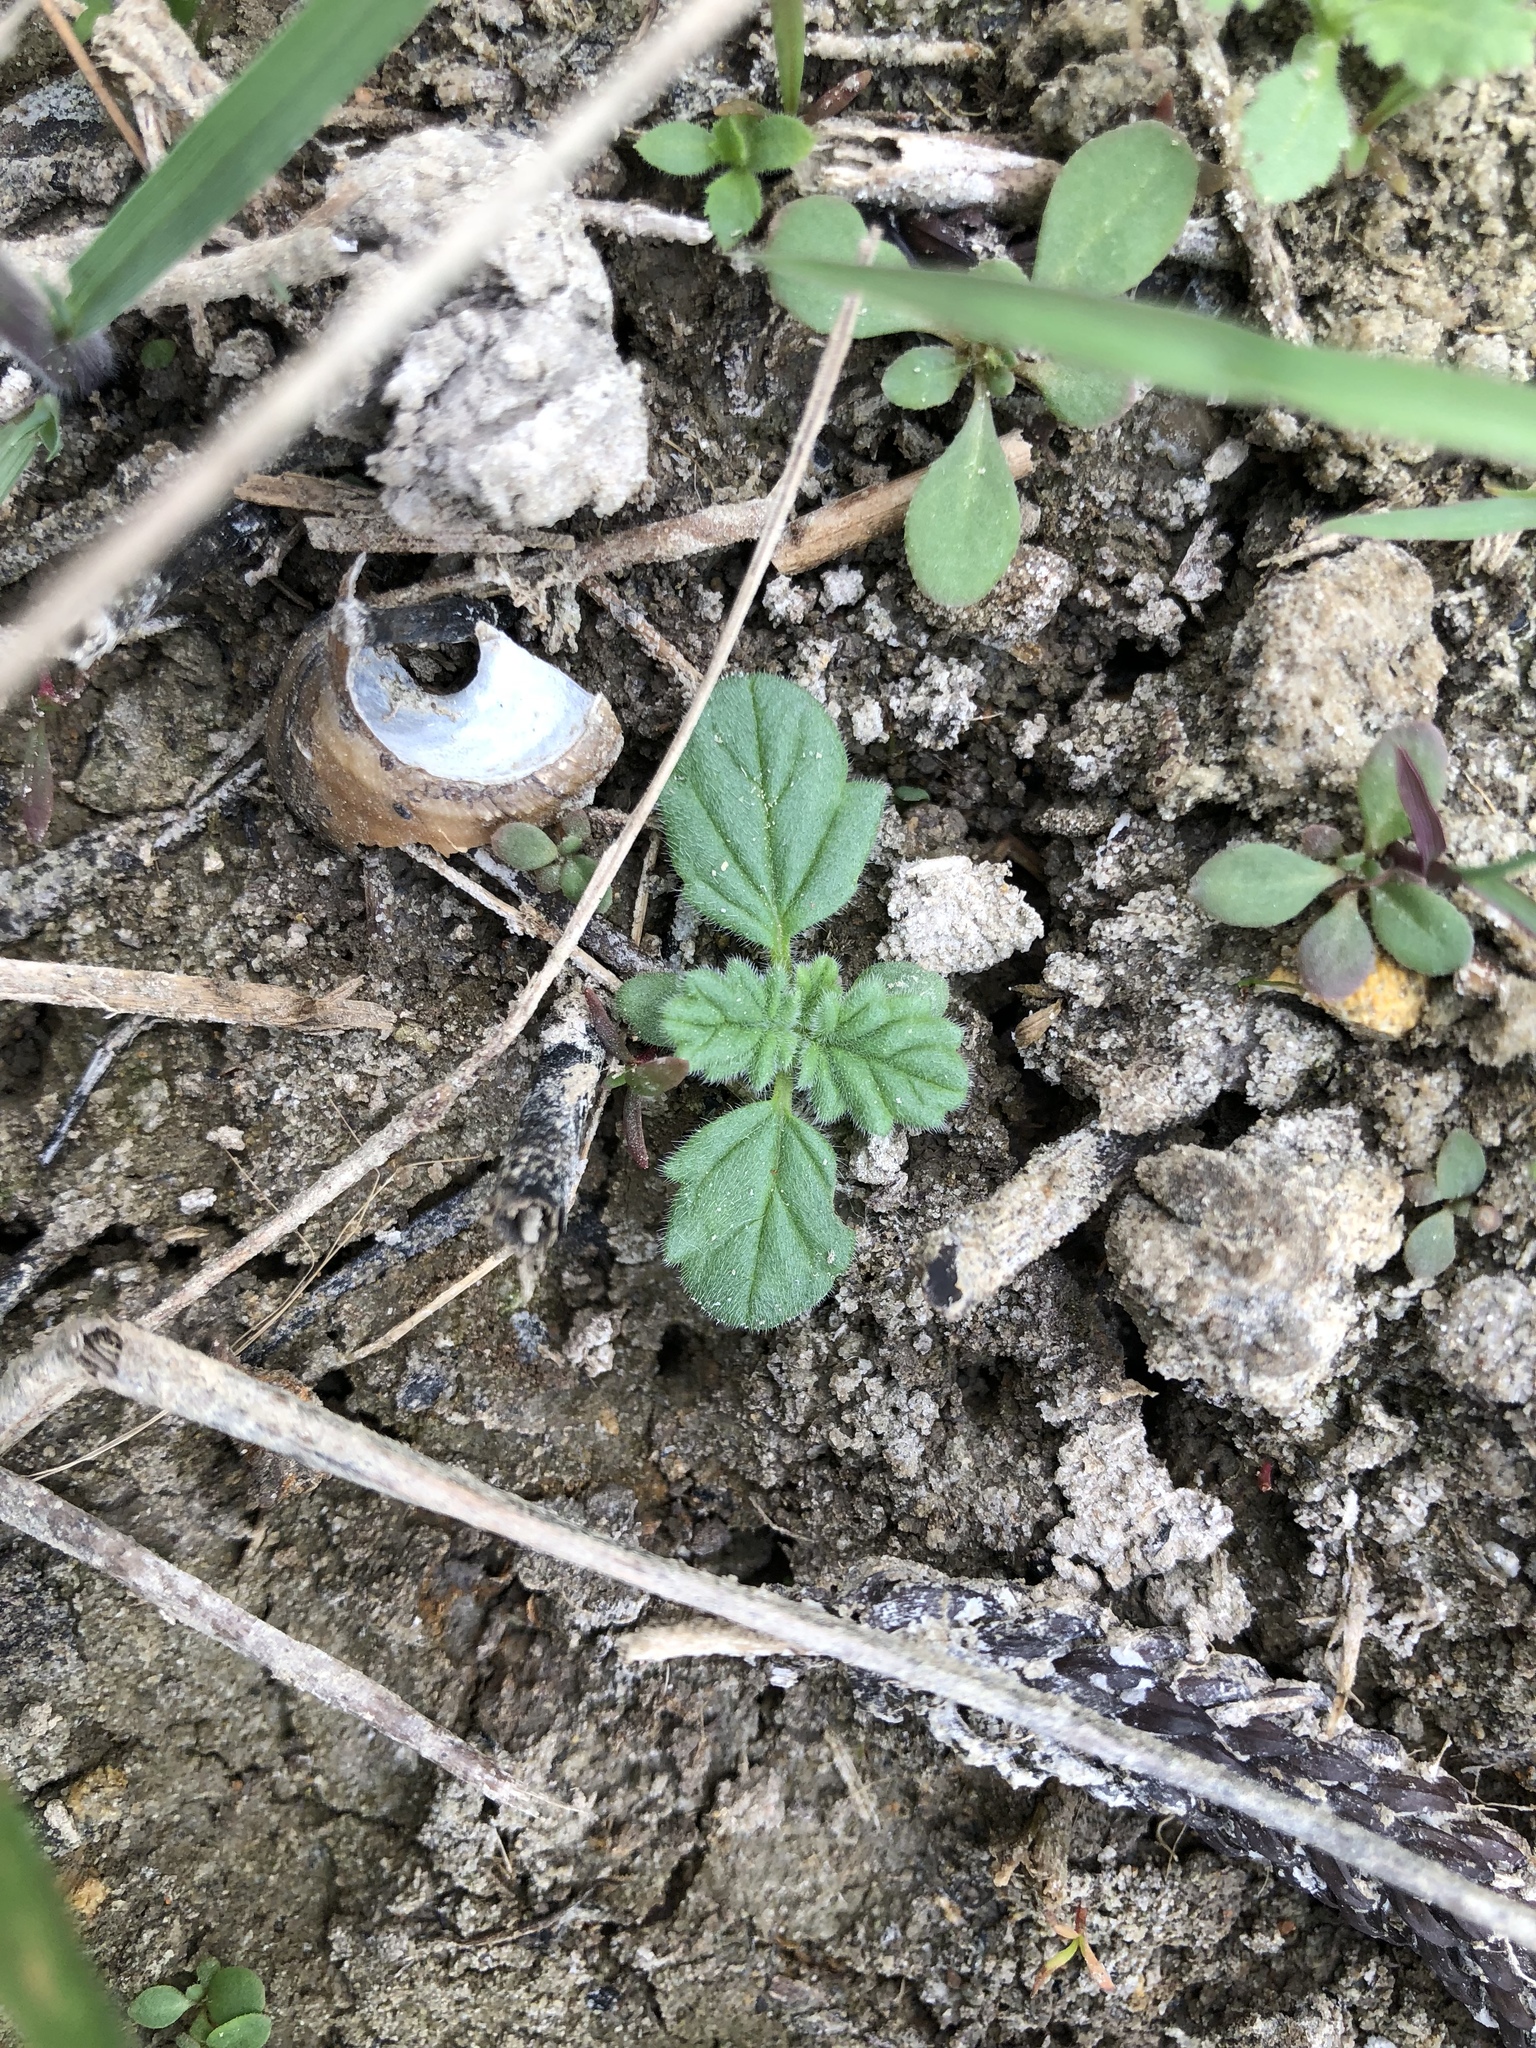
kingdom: Plantae
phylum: Tracheophyta
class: Magnoliopsida
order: Boraginales
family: Coldeniaceae
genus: Coldenia
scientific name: Coldenia procumbens
